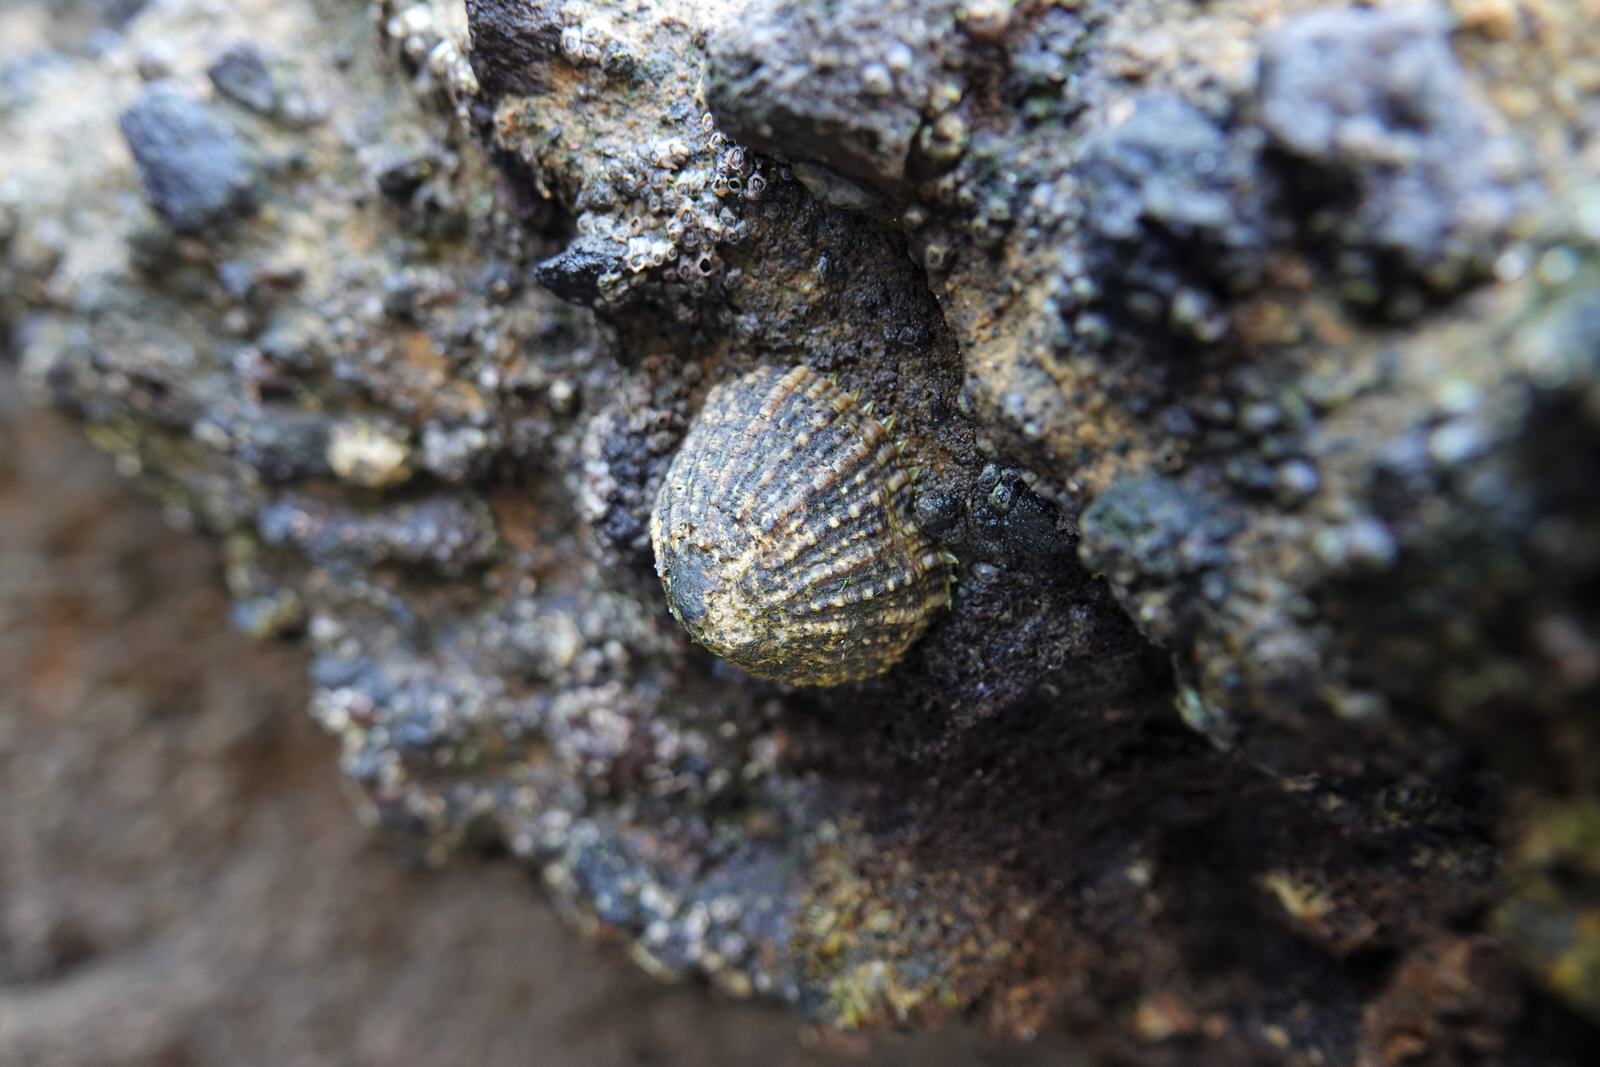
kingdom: Animalia
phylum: Mollusca
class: Gastropoda
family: Nacellidae
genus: Cellana
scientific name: Cellana ornata
